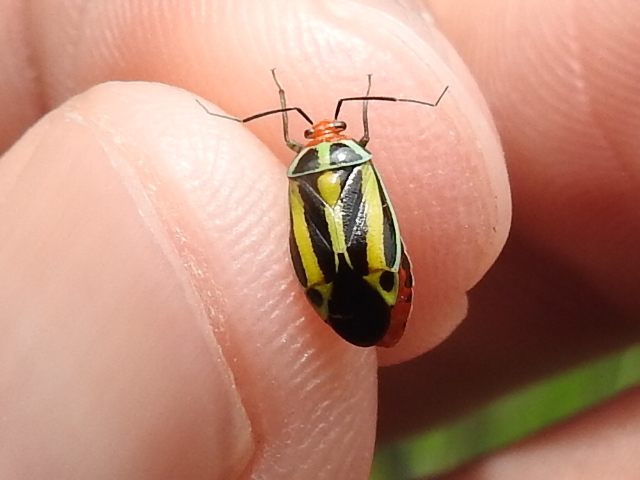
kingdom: Animalia
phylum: Arthropoda
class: Insecta
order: Hemiptera
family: Miridae
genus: Poecilocapsus
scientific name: Poecilocapsus lineatus
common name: Four-lined plant bug
